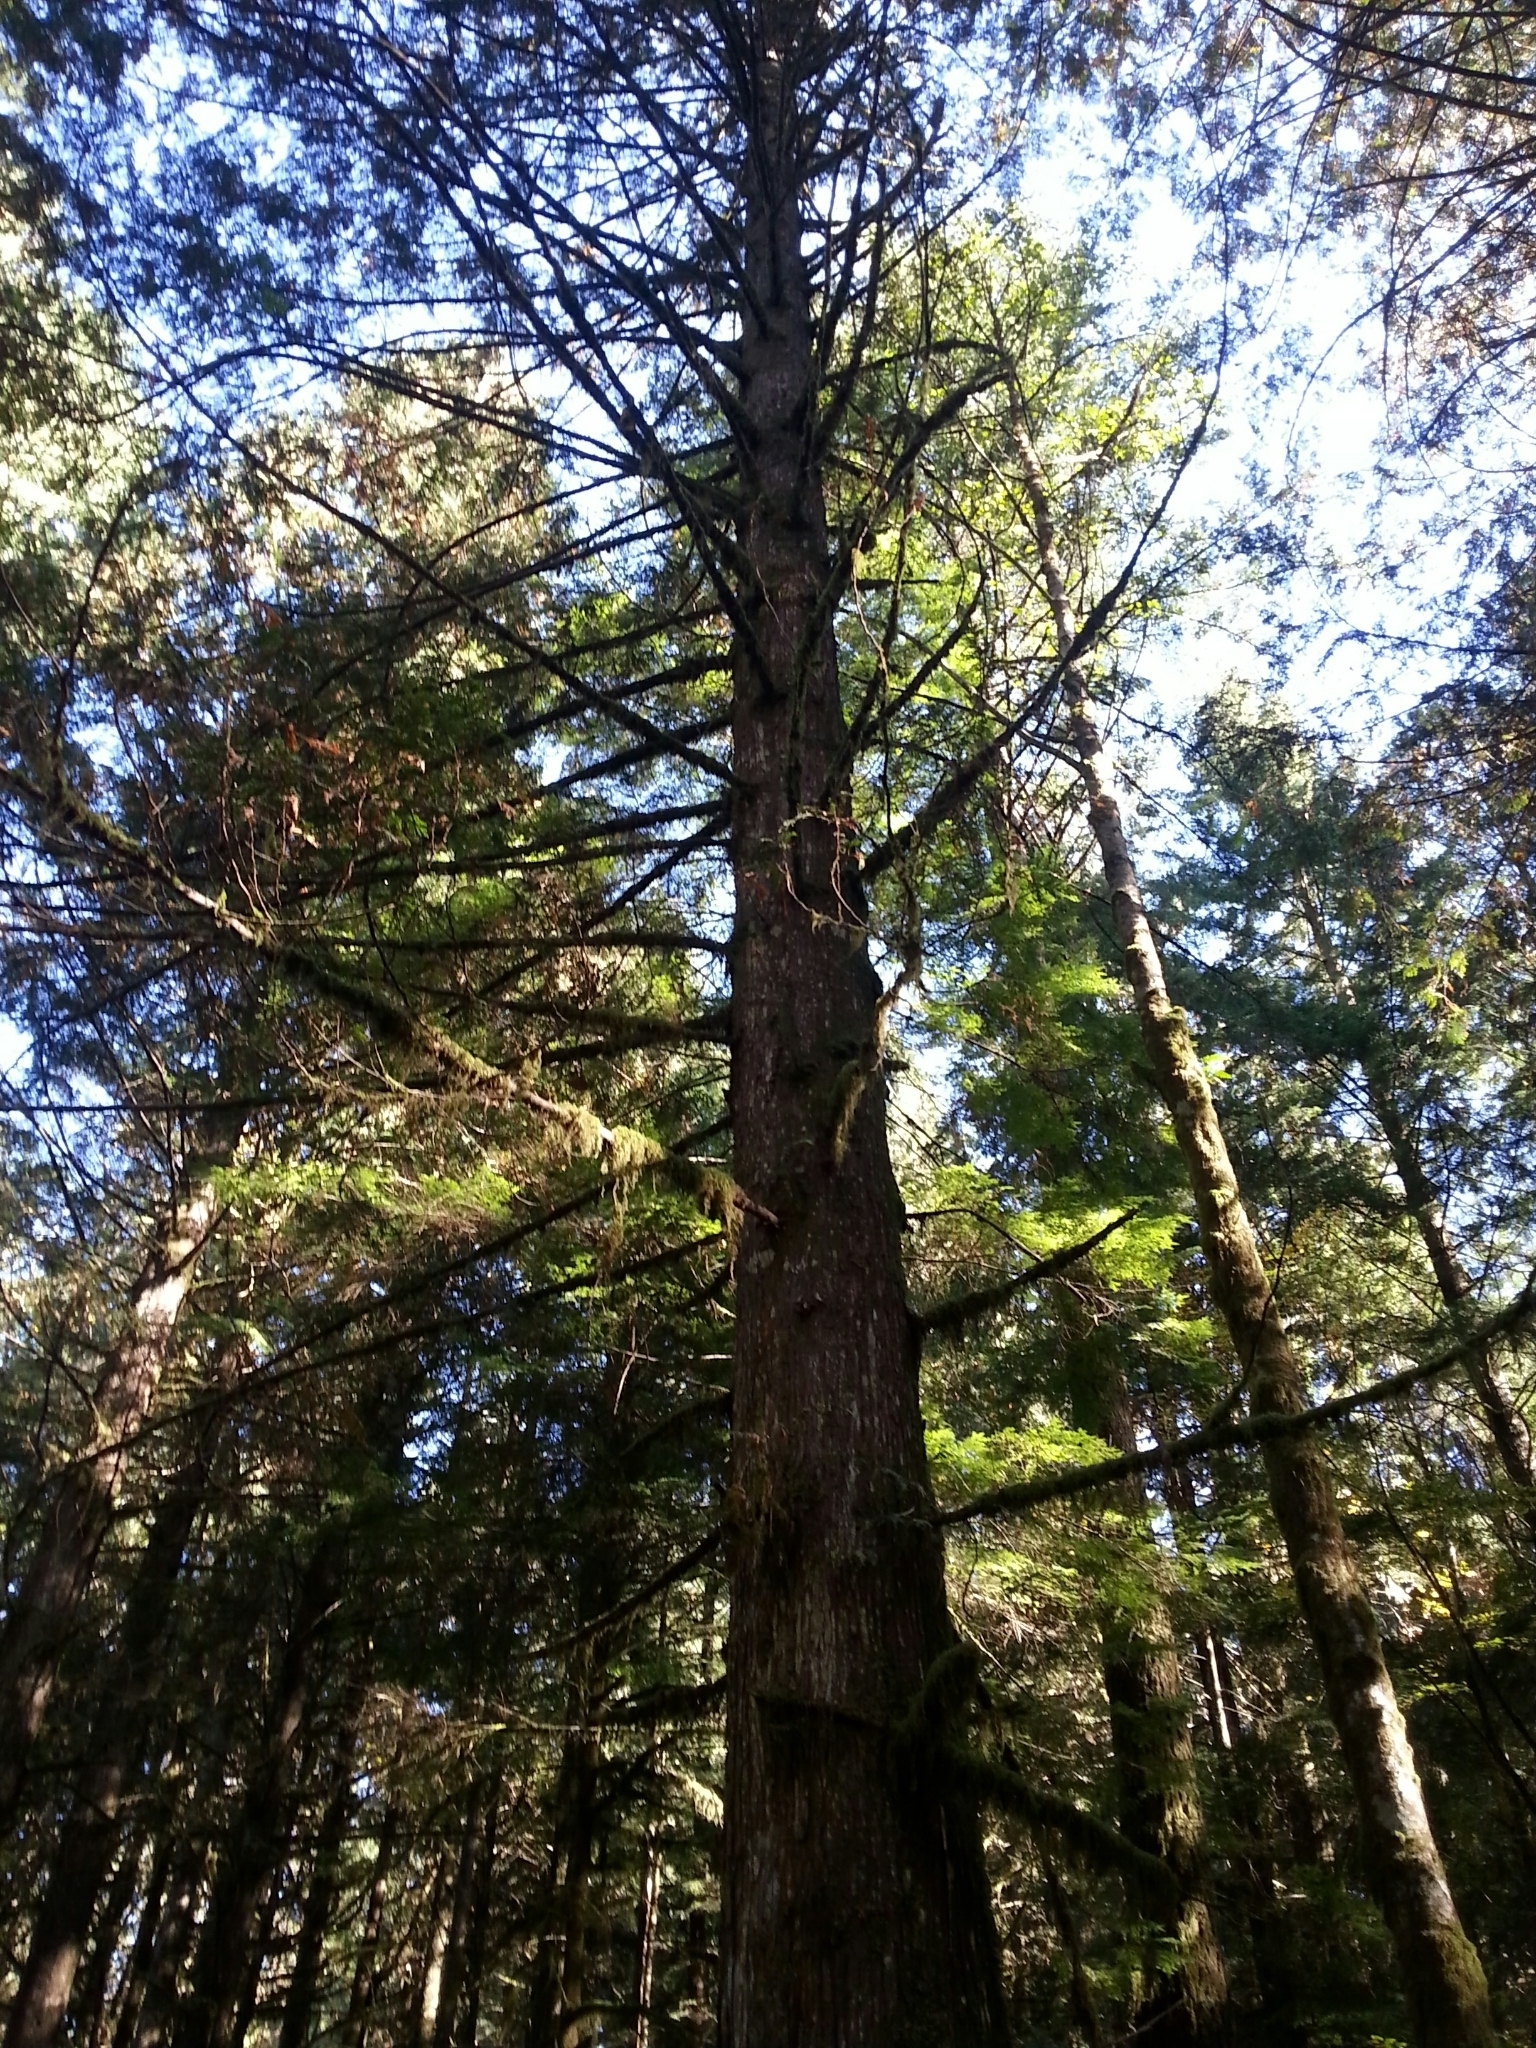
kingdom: Plantae
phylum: Tracheophyta
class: Pinopsida
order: Pinales
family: Cupressaceae
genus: Thuja
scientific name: Thuja plicata
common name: Western red-cedar
